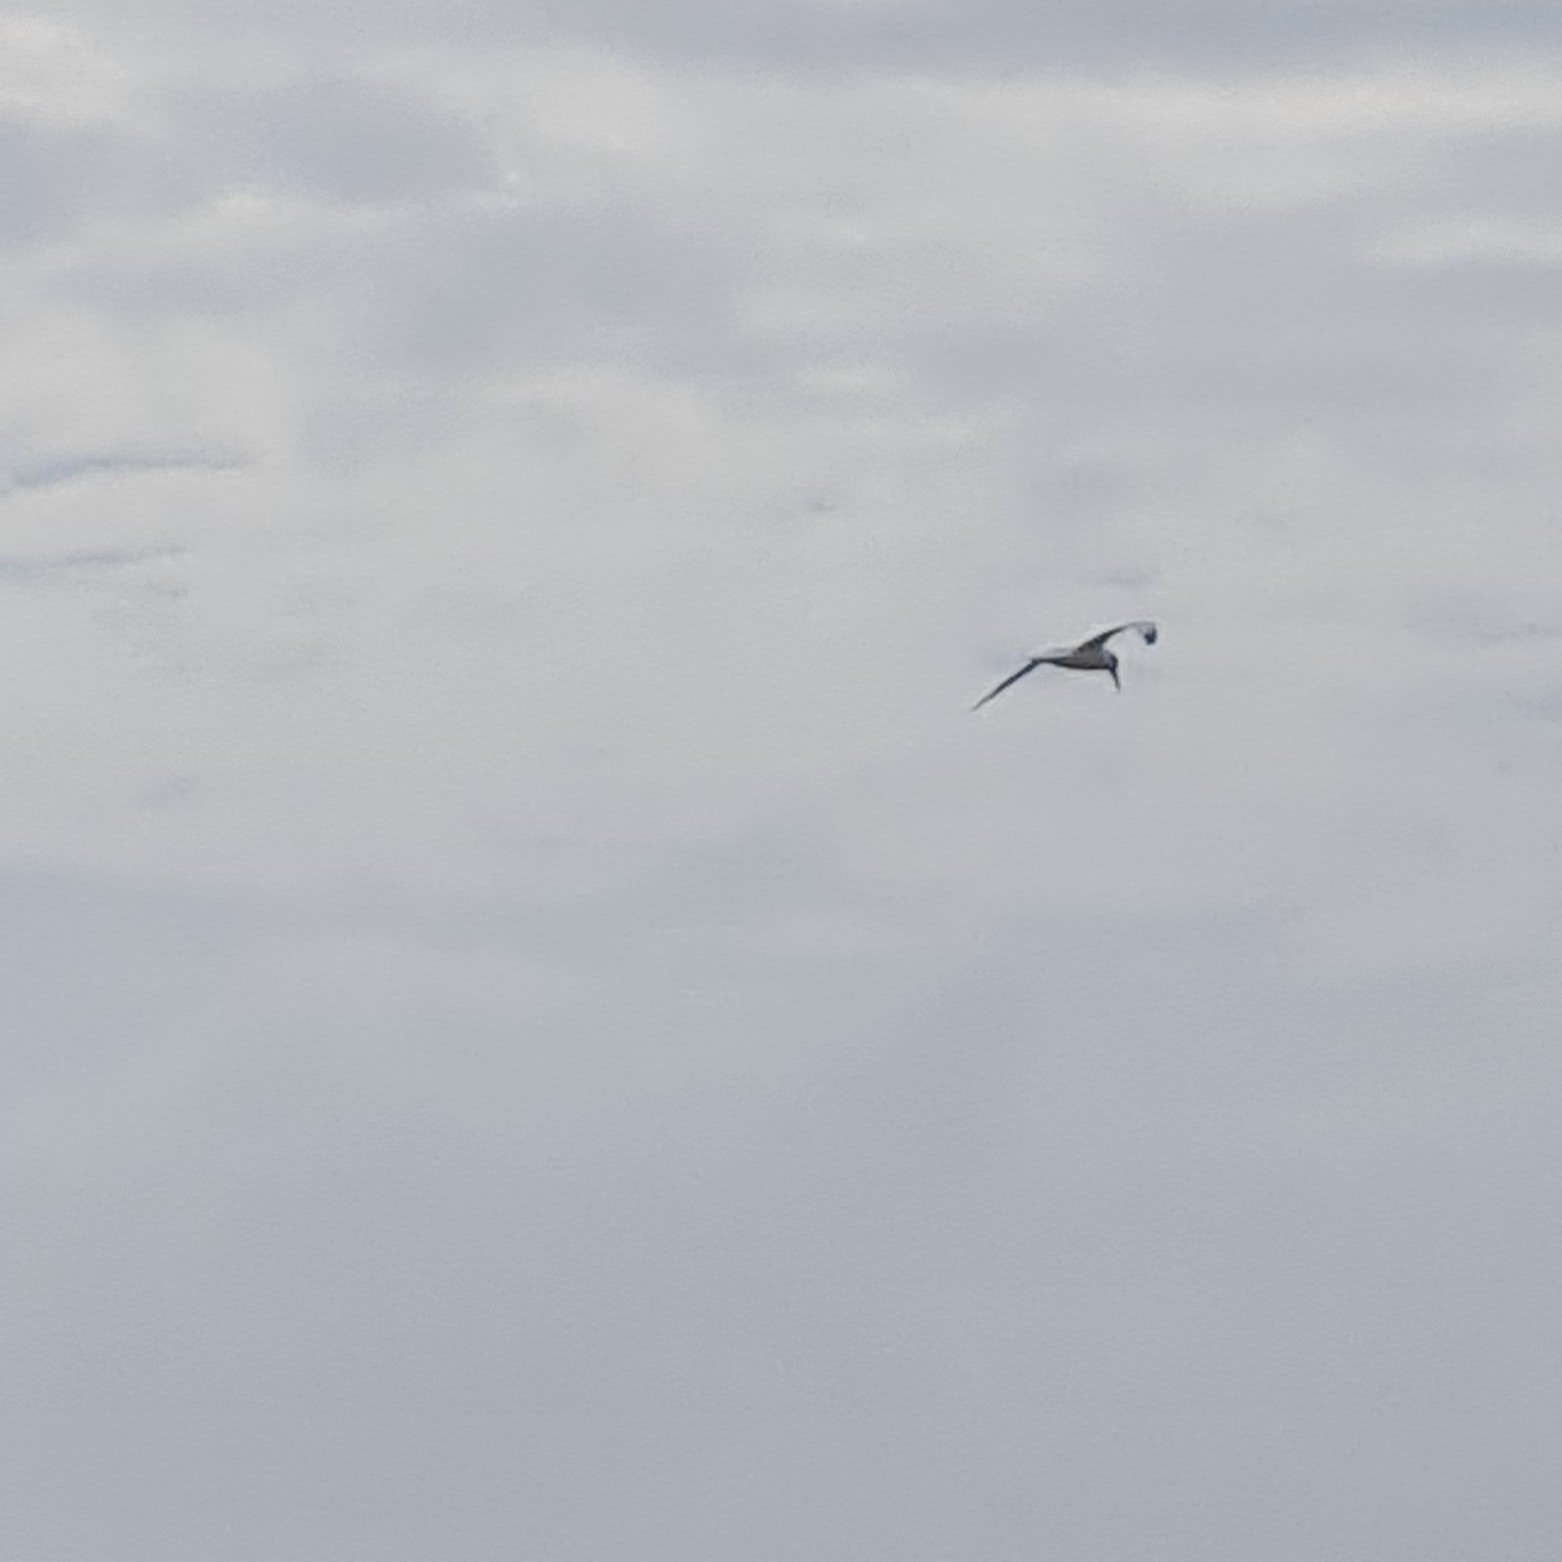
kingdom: Animalia
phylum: Chordata
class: Aves
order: Charadriiformes
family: Laridae
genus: Thalasseus
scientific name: Thalasseus sandvicensis
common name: Sandwich tern
